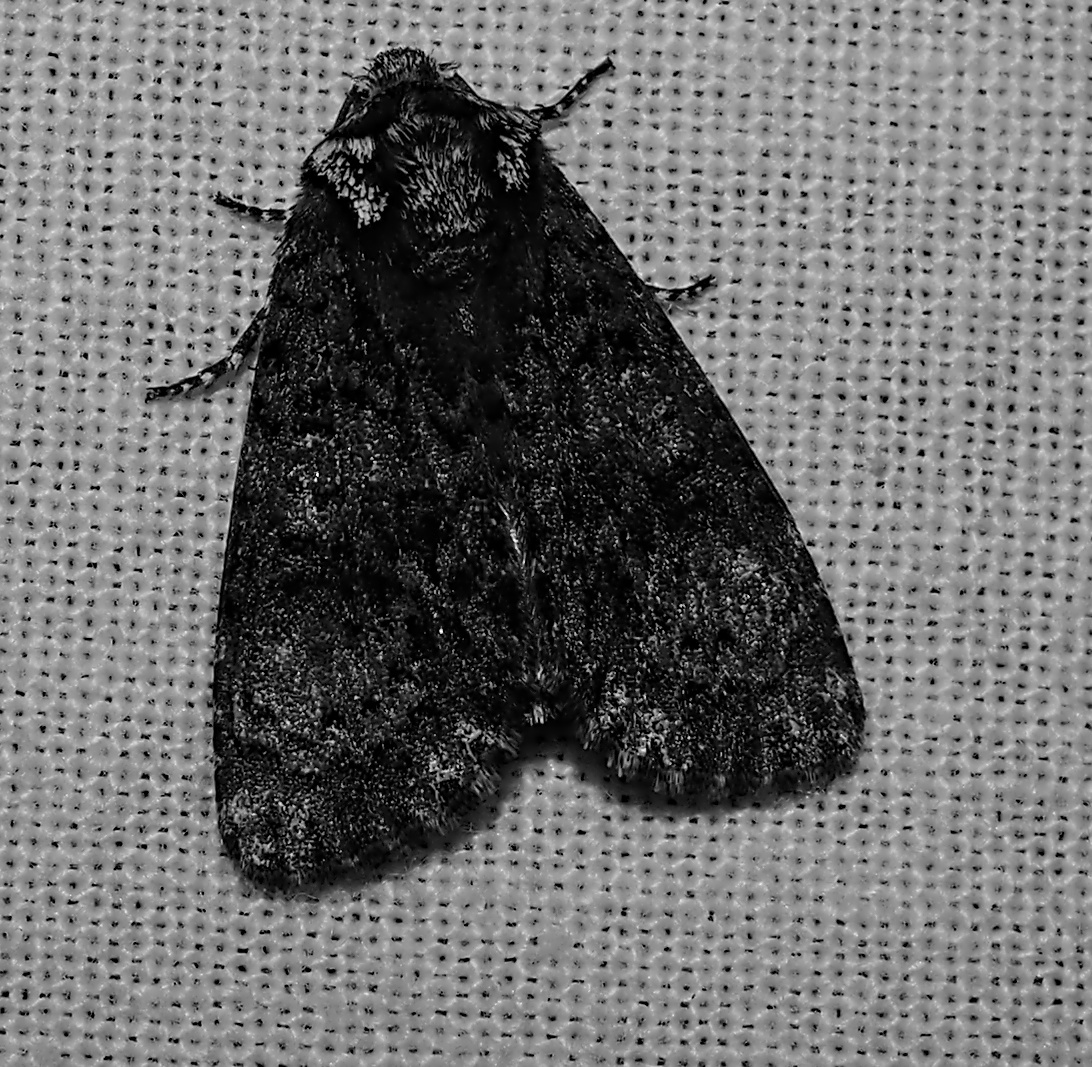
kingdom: Animalia
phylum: Arthropoda
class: Insecta
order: Lepidoptera
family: Noctuidae
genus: Craniophora
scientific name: Craniophora ligustri
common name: Coronet
